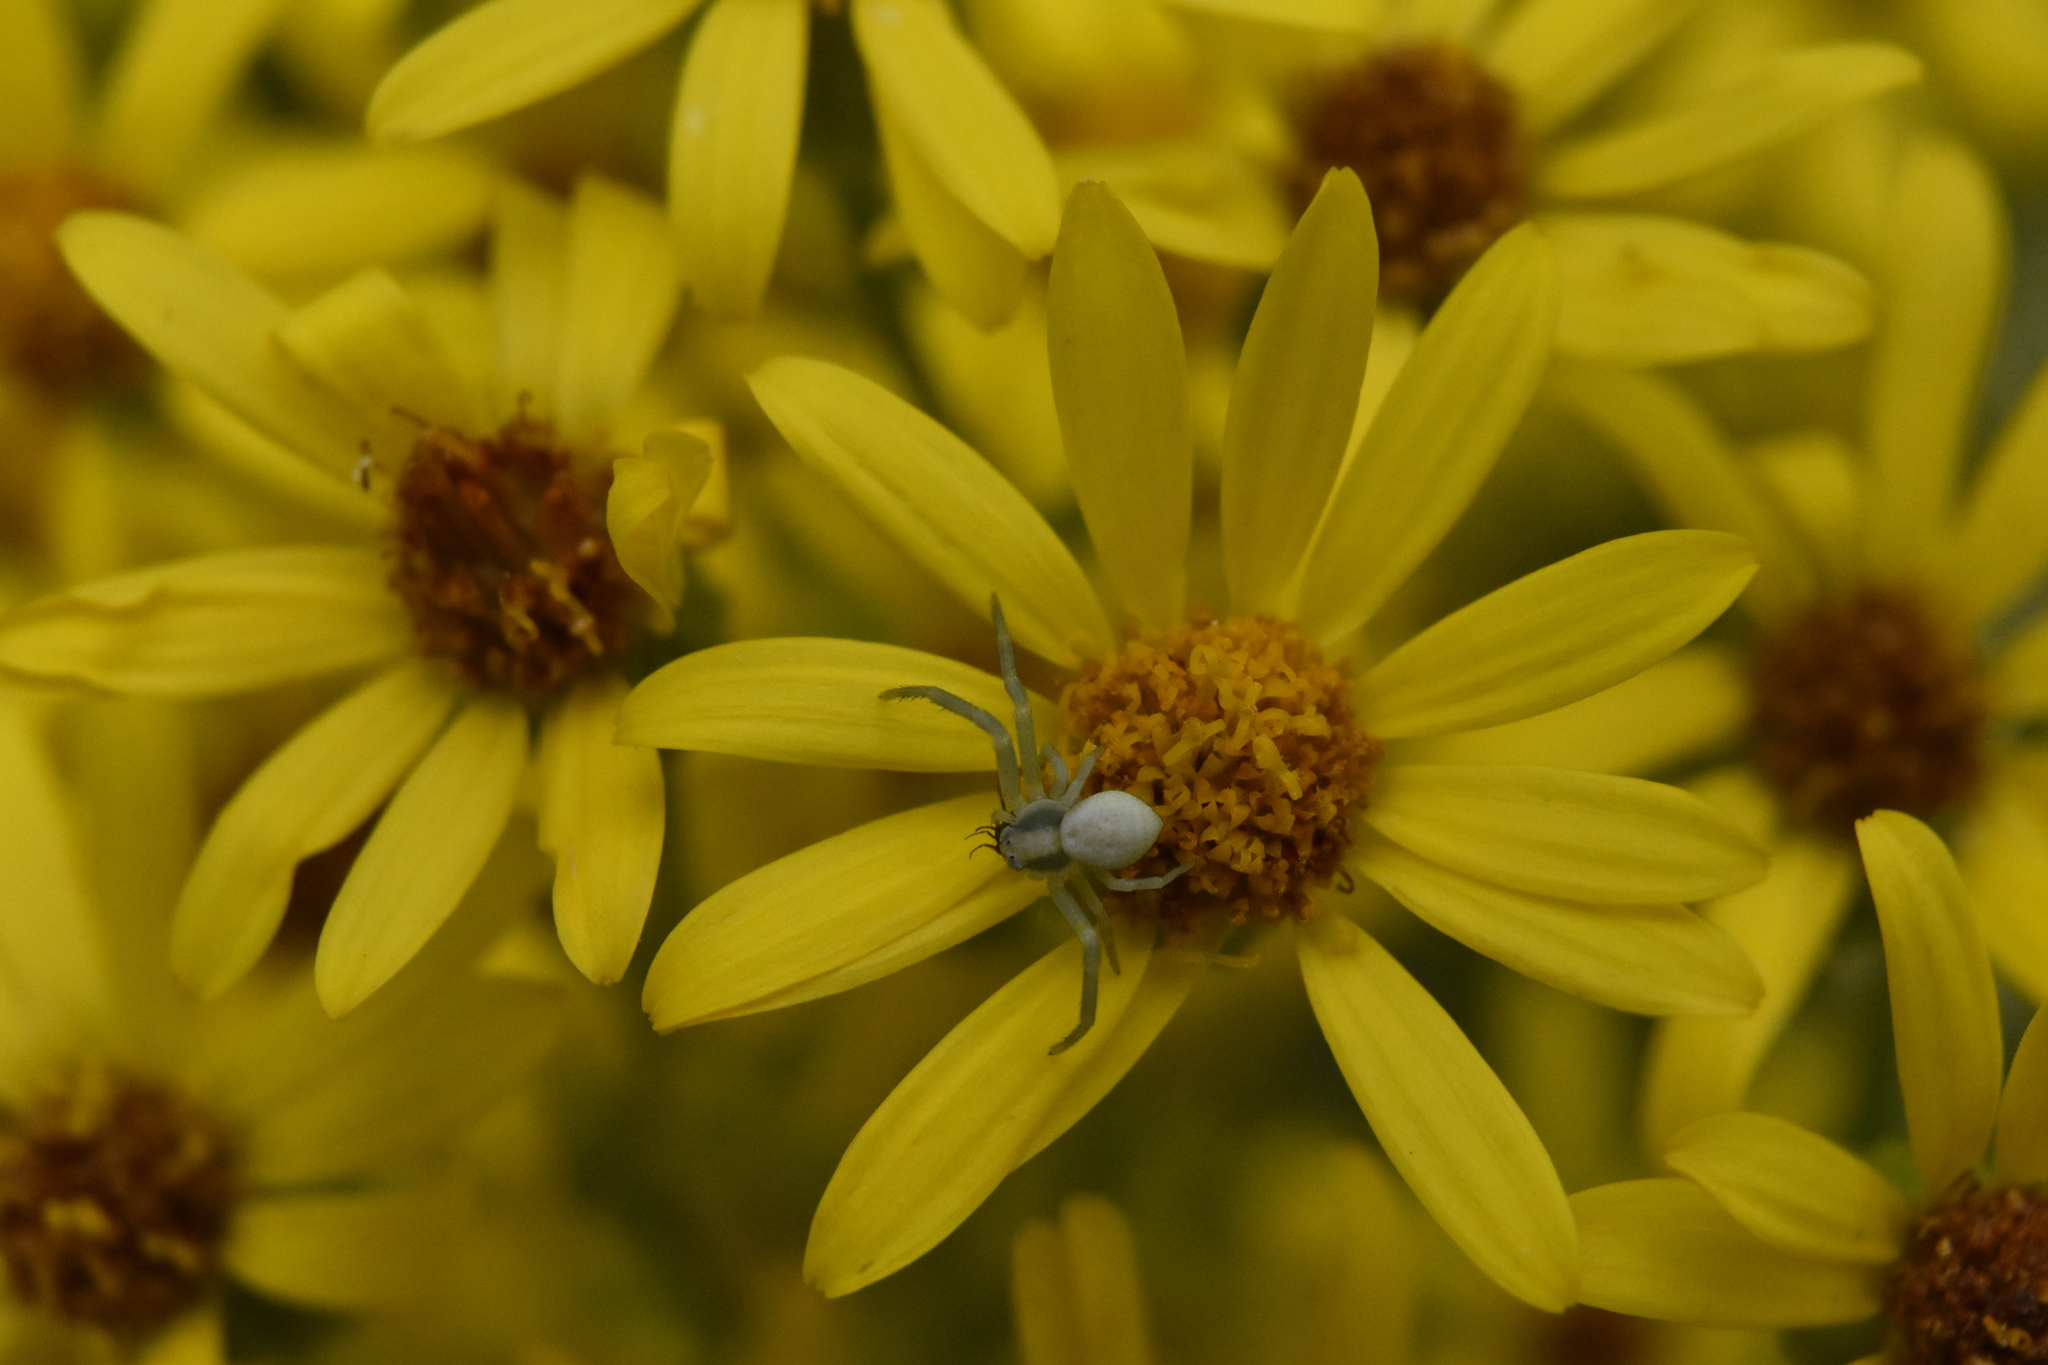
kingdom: Animalia
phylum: Arthropoda
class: Arachnida
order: Araneae
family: Thomisidae
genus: Misumena
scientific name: Misumena vatia
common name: Goldenrod crab spider
